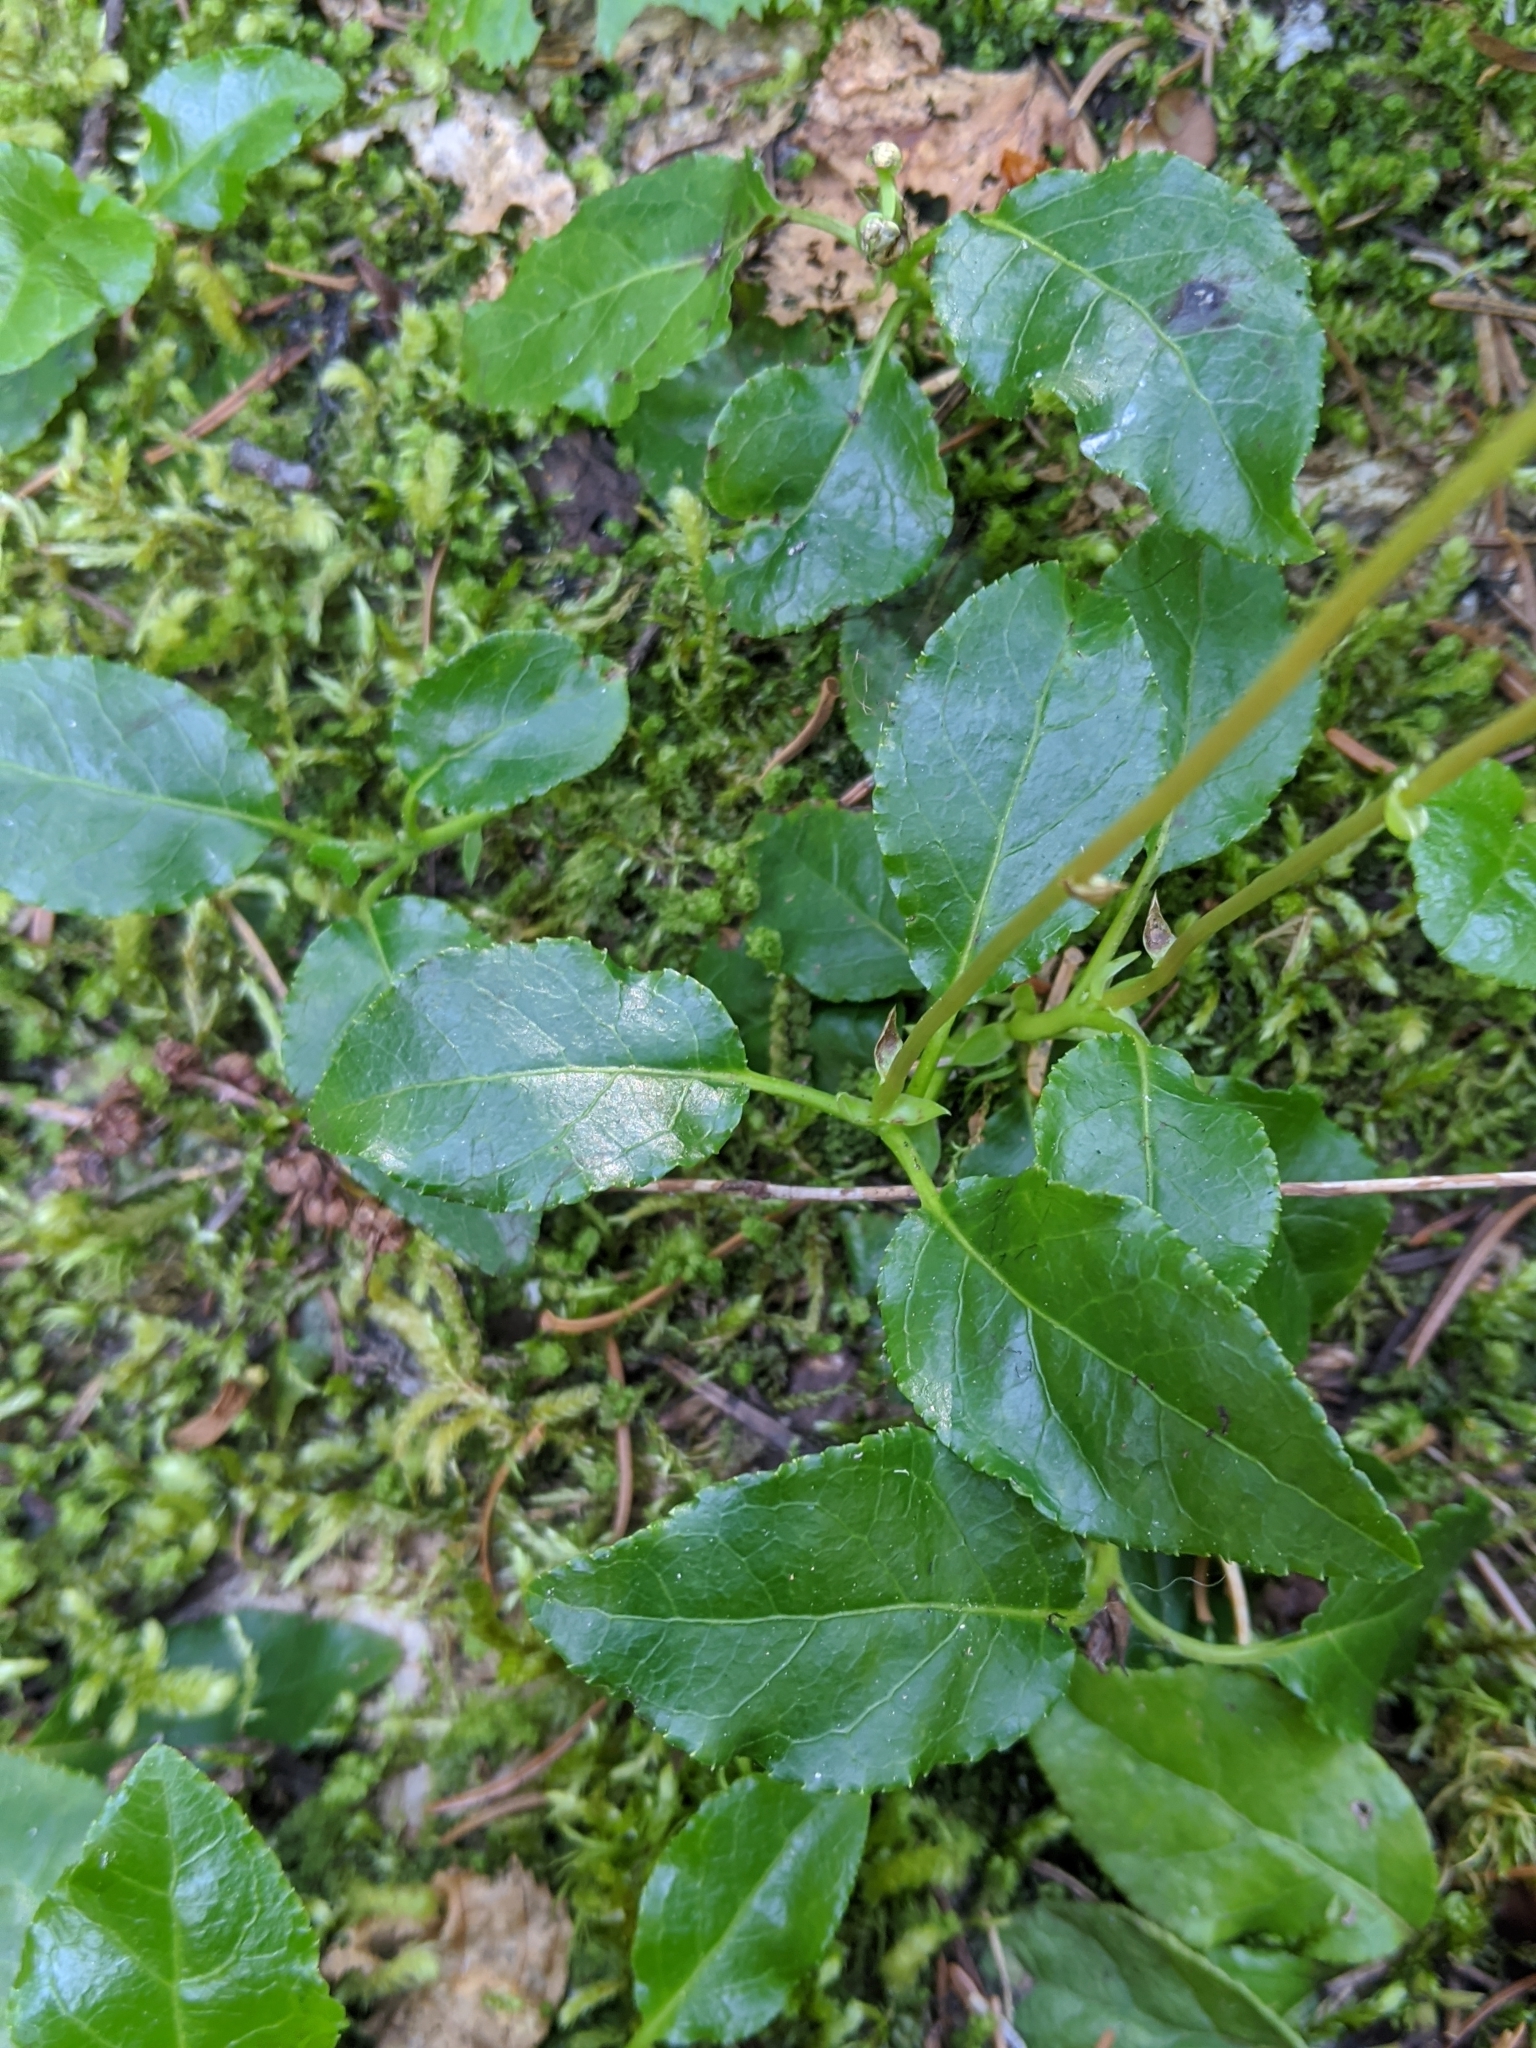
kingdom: Plantae
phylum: Tracheophyta
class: Magnoliopsida
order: Ericales
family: Ericaceae
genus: Orthilia
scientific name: Orthilia secunda
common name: One-sided orthilia
